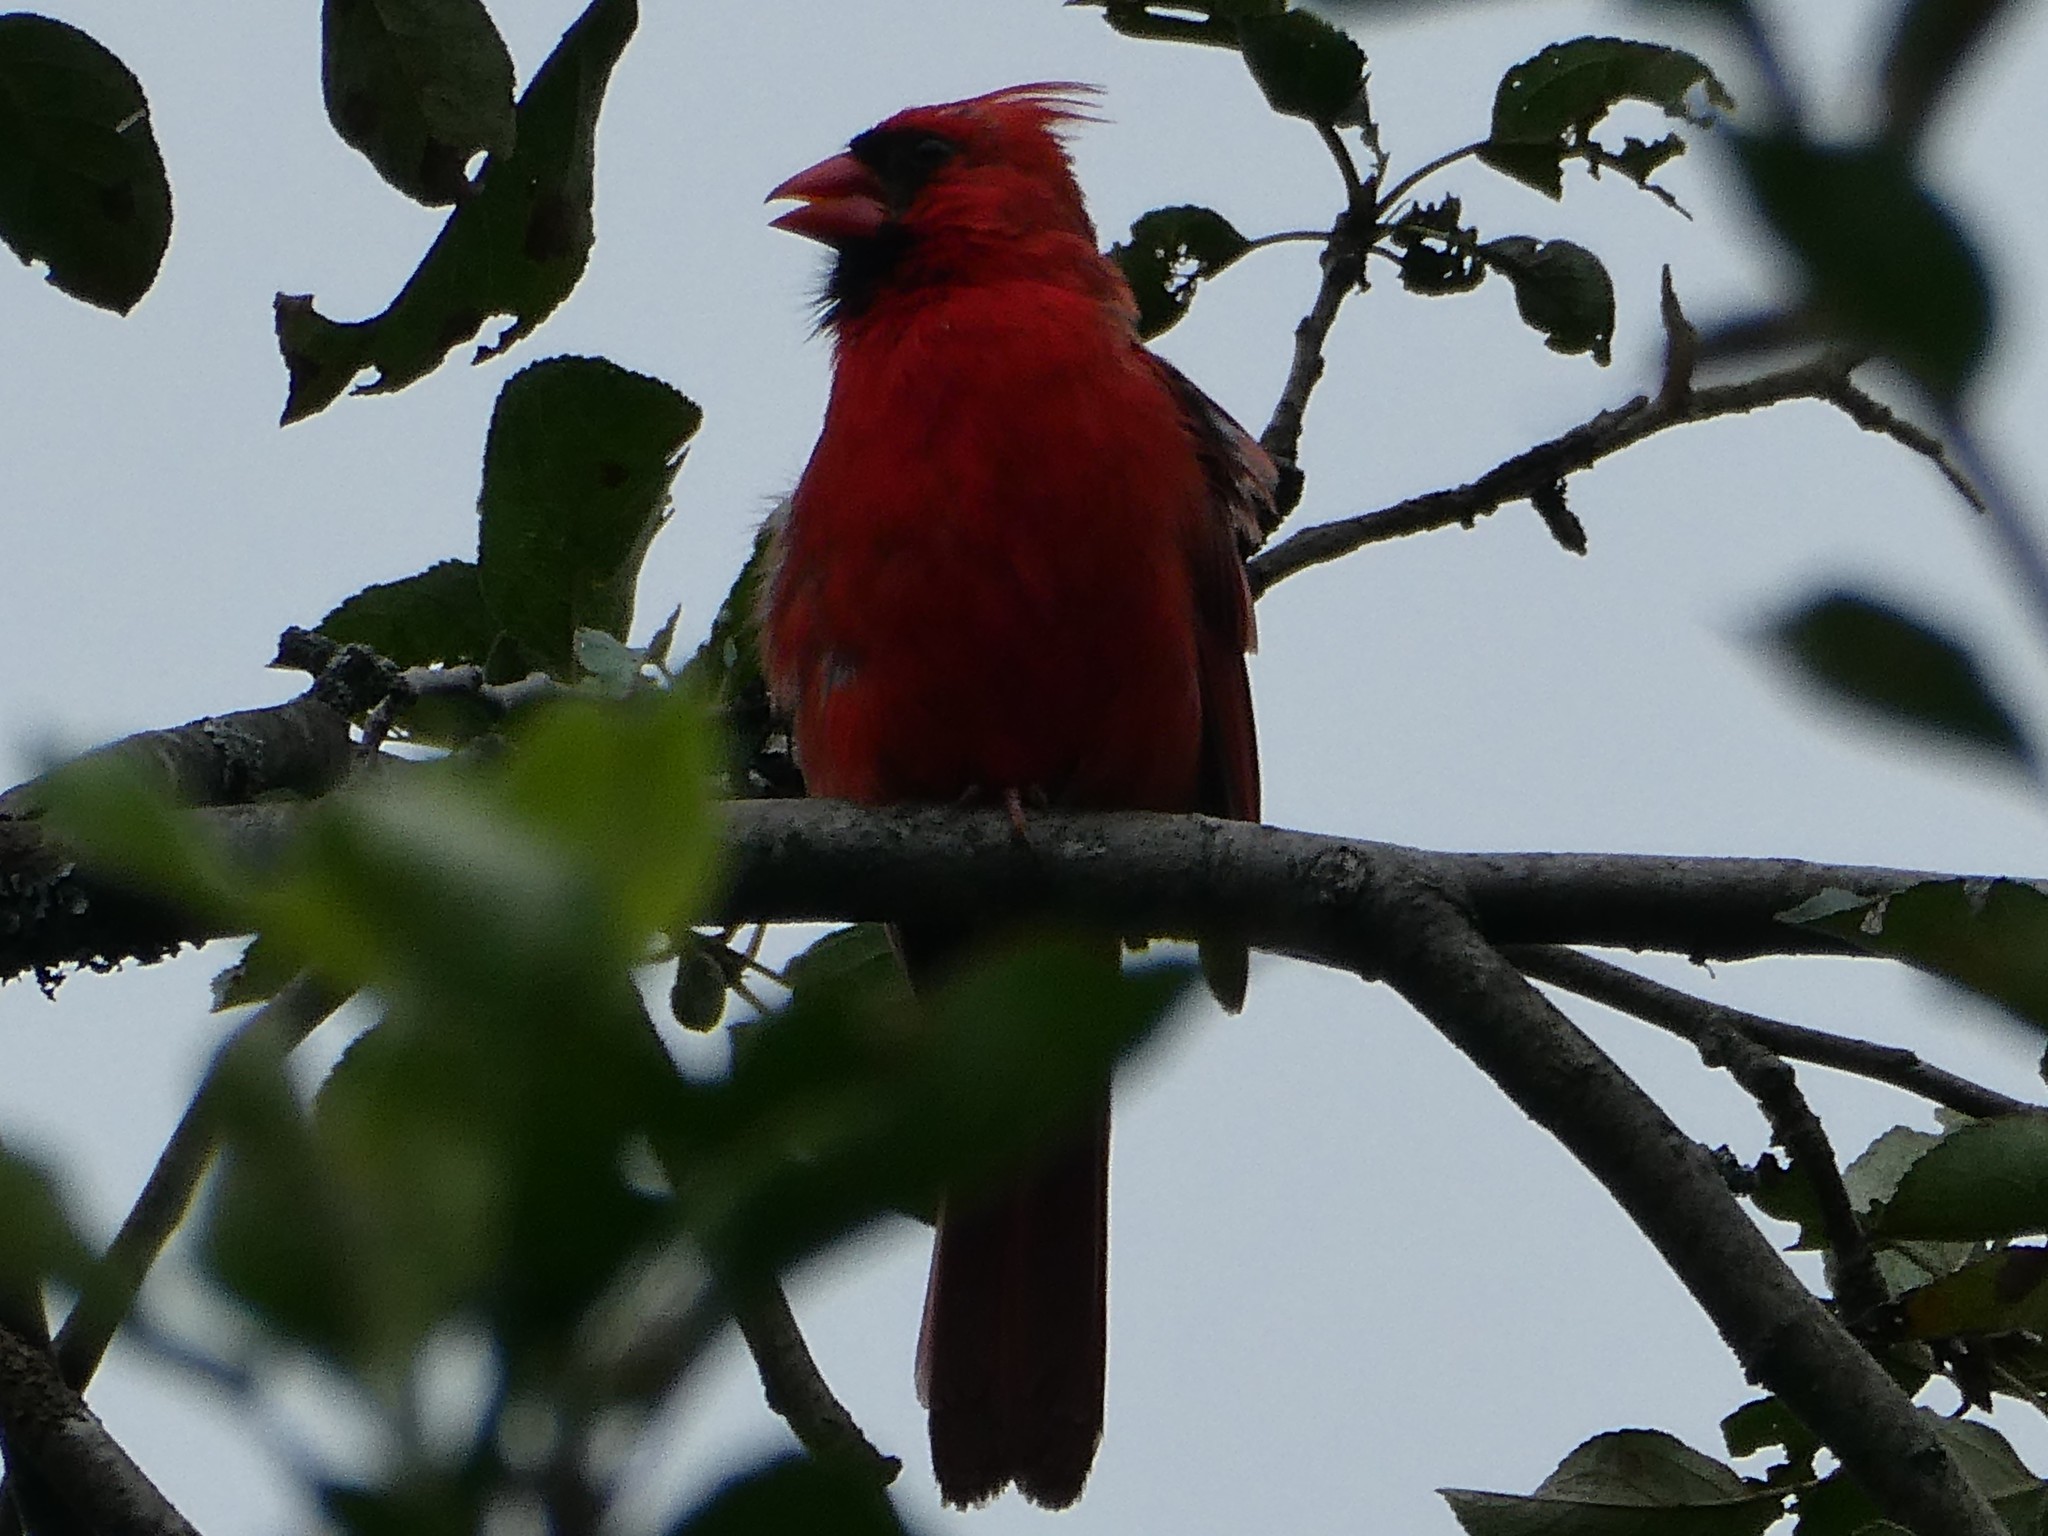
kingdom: Animalia
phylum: Chordata
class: Aves
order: Passeriformes
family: Cardinalidae
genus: Cardinalis
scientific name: Cardinalis cardinalis
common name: Northern cardinal
